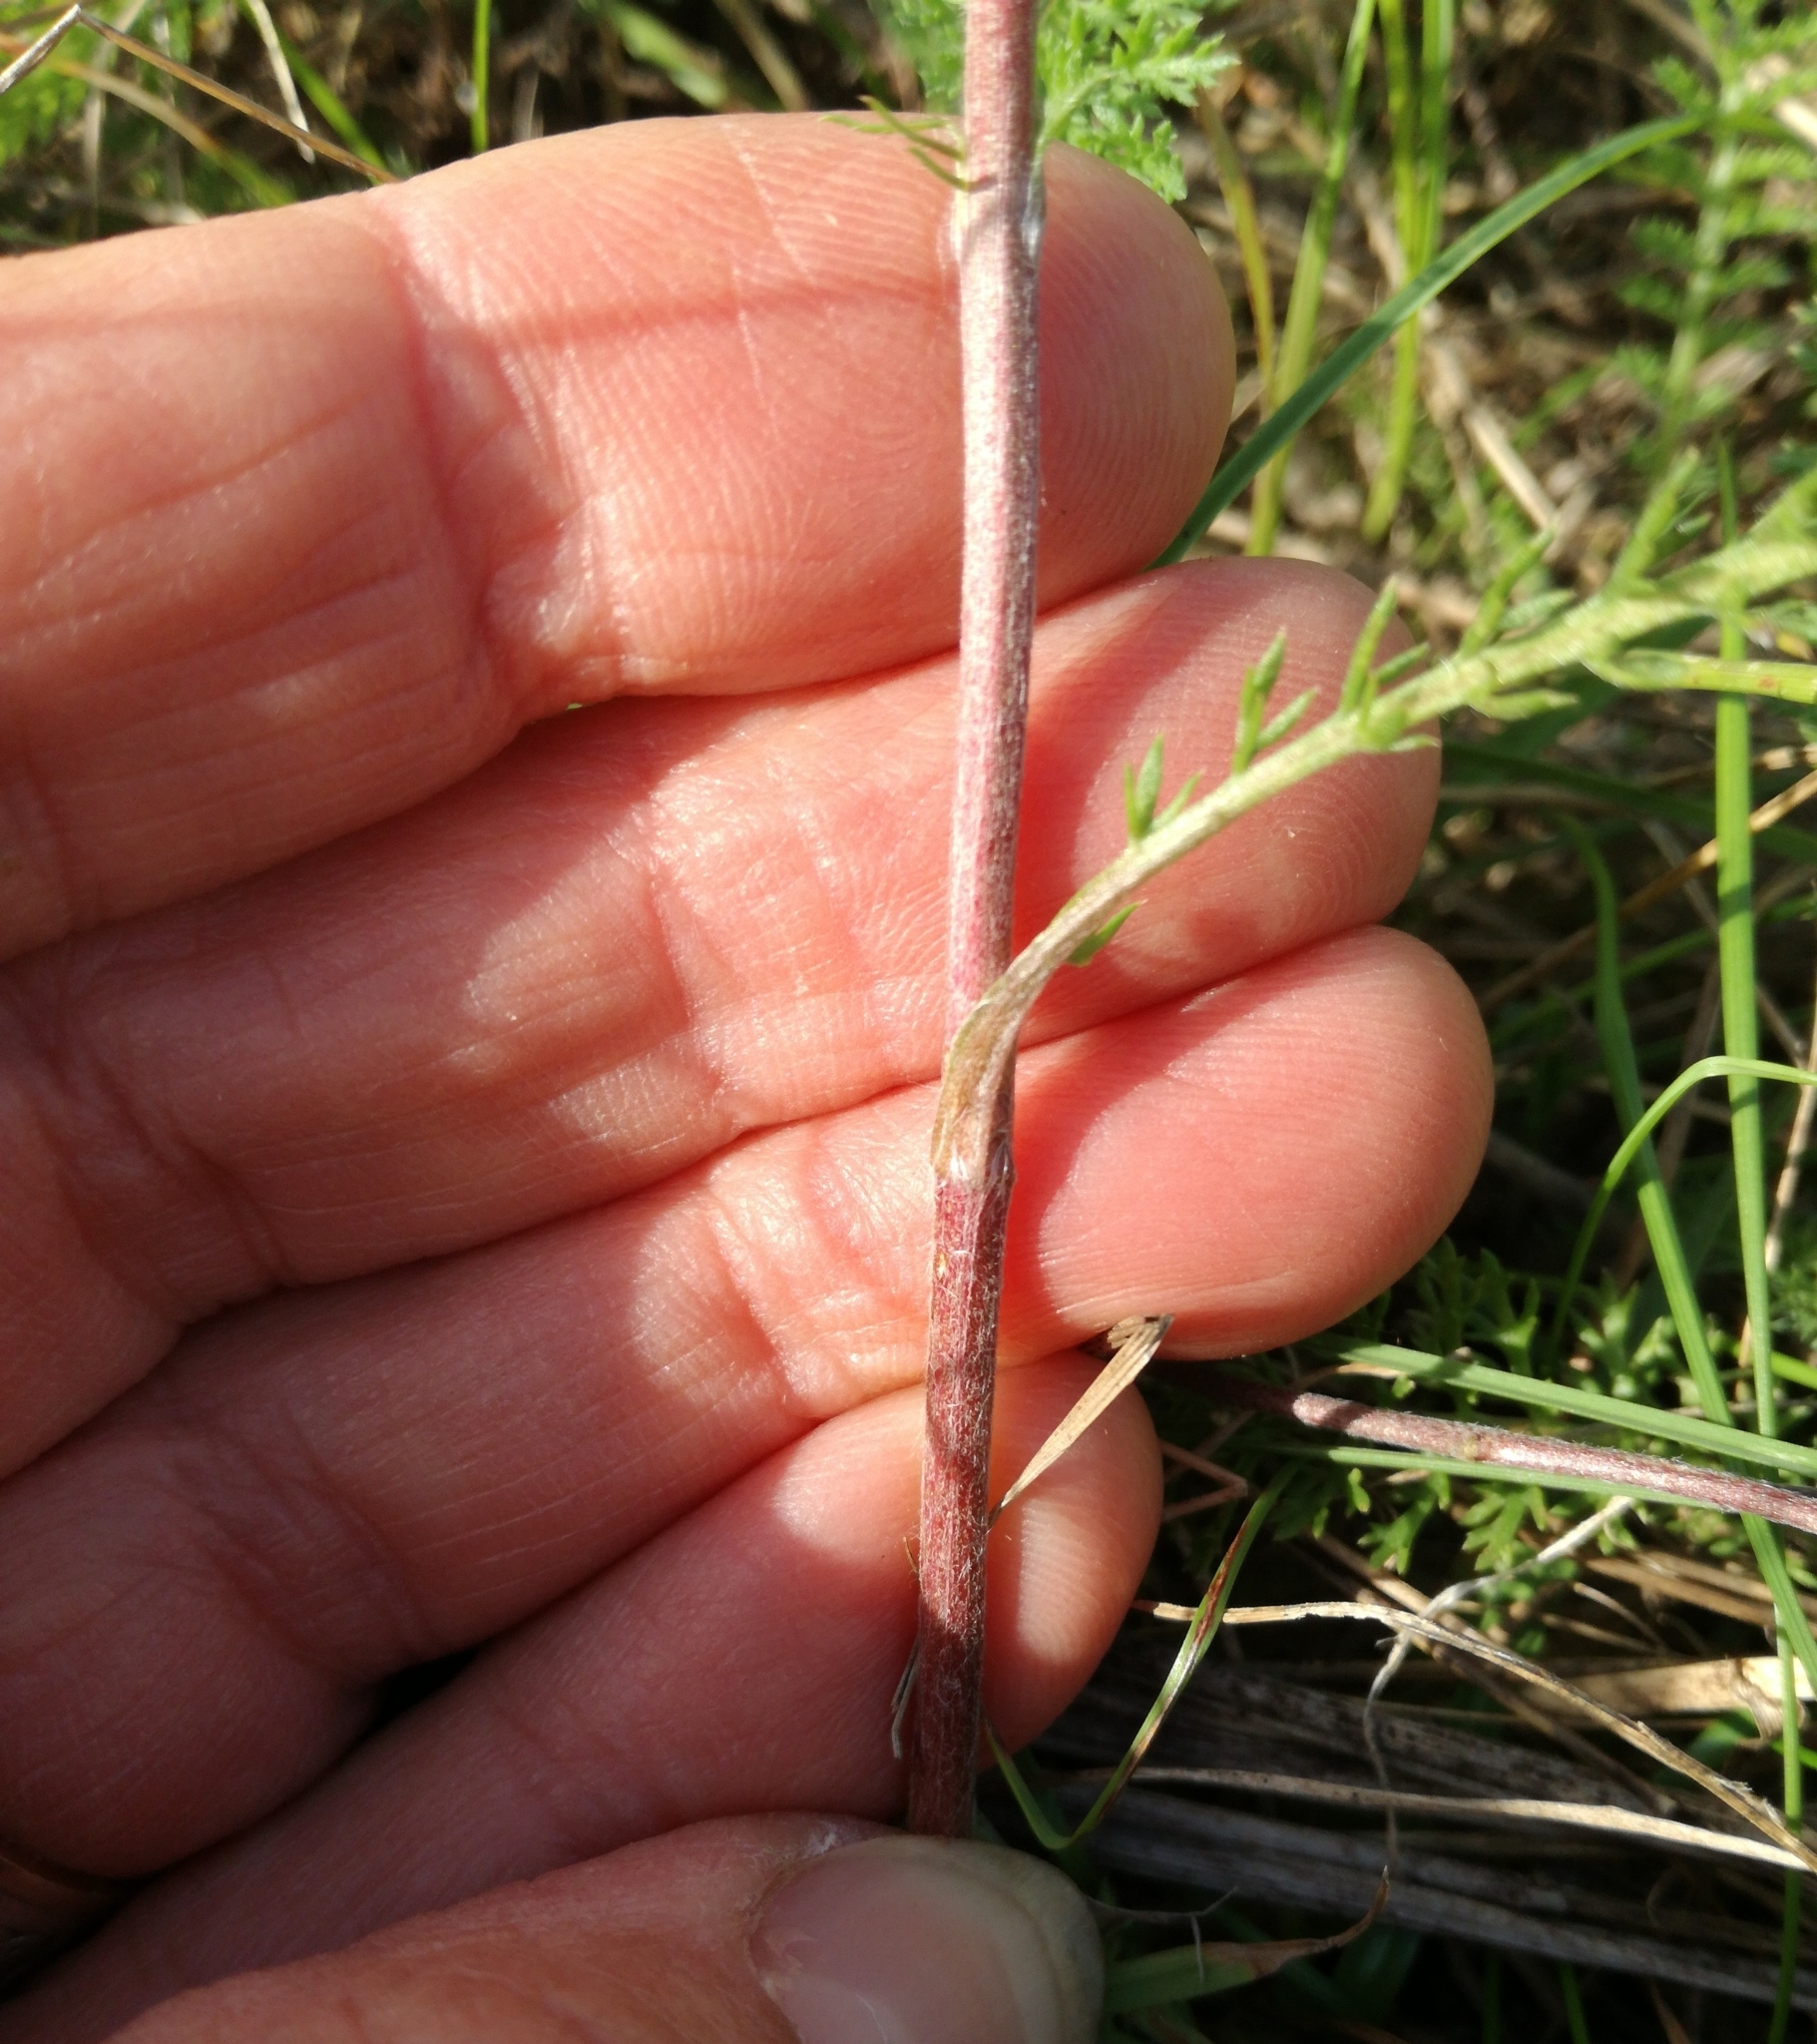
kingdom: Plantae
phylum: Tracheophyta
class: Magnoliopsida
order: Asterales
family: Asteraceae
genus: Achillea
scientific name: Achillea millefolium
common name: Yarrow
